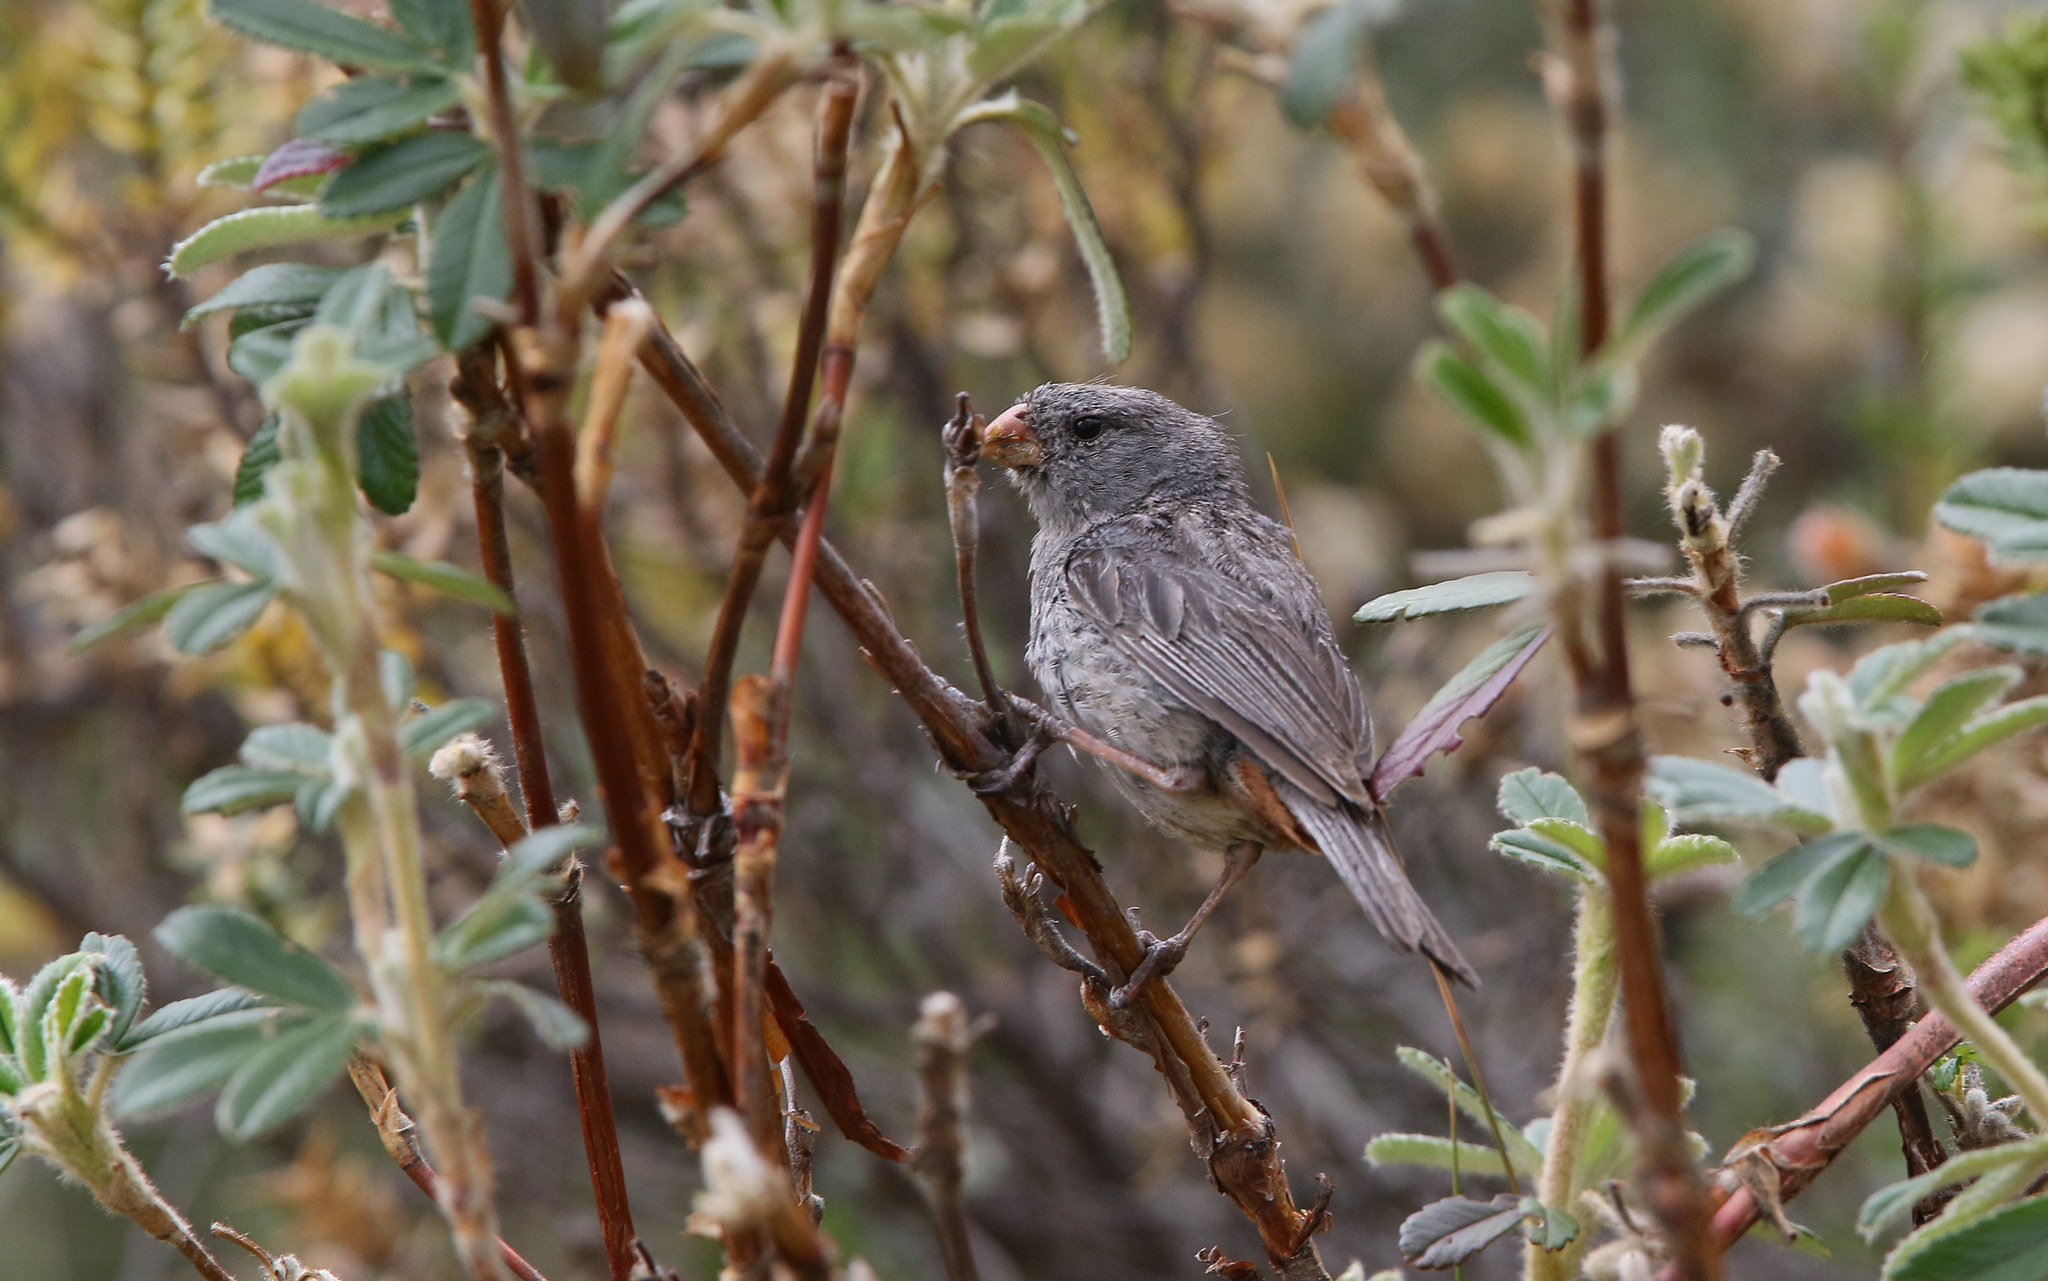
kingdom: Animalia
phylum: Chordata
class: Aves
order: Passeriformes
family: Thraupidae
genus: Catamenia
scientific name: Catamenia inornata
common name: Plain-colored seedeater
